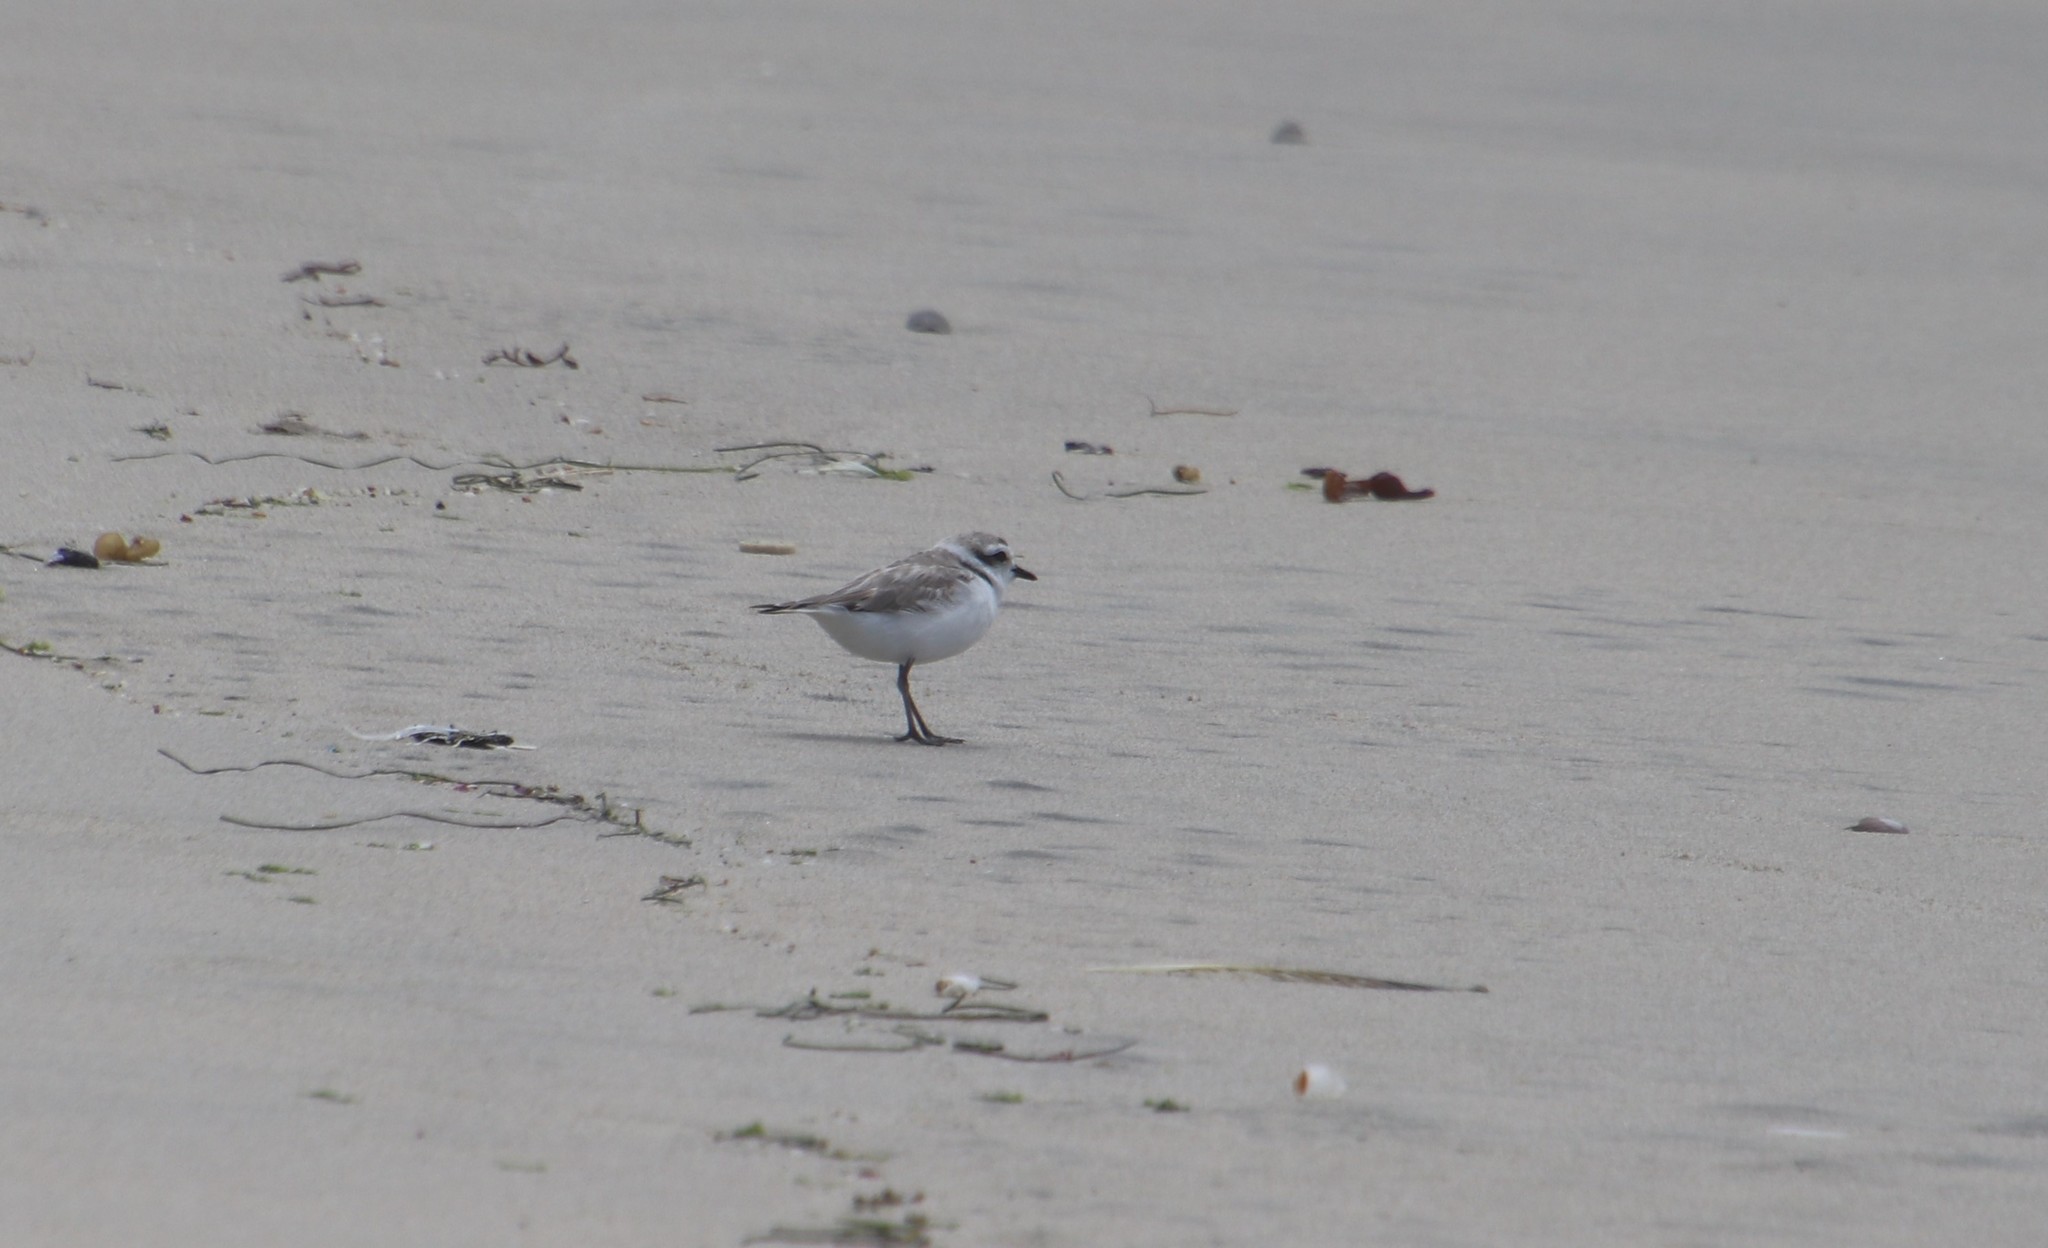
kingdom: Animalia
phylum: Chordata
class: Aves
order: Charadriiformes
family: Charadriidae
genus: Anarhynchus
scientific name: Anarhynchus
